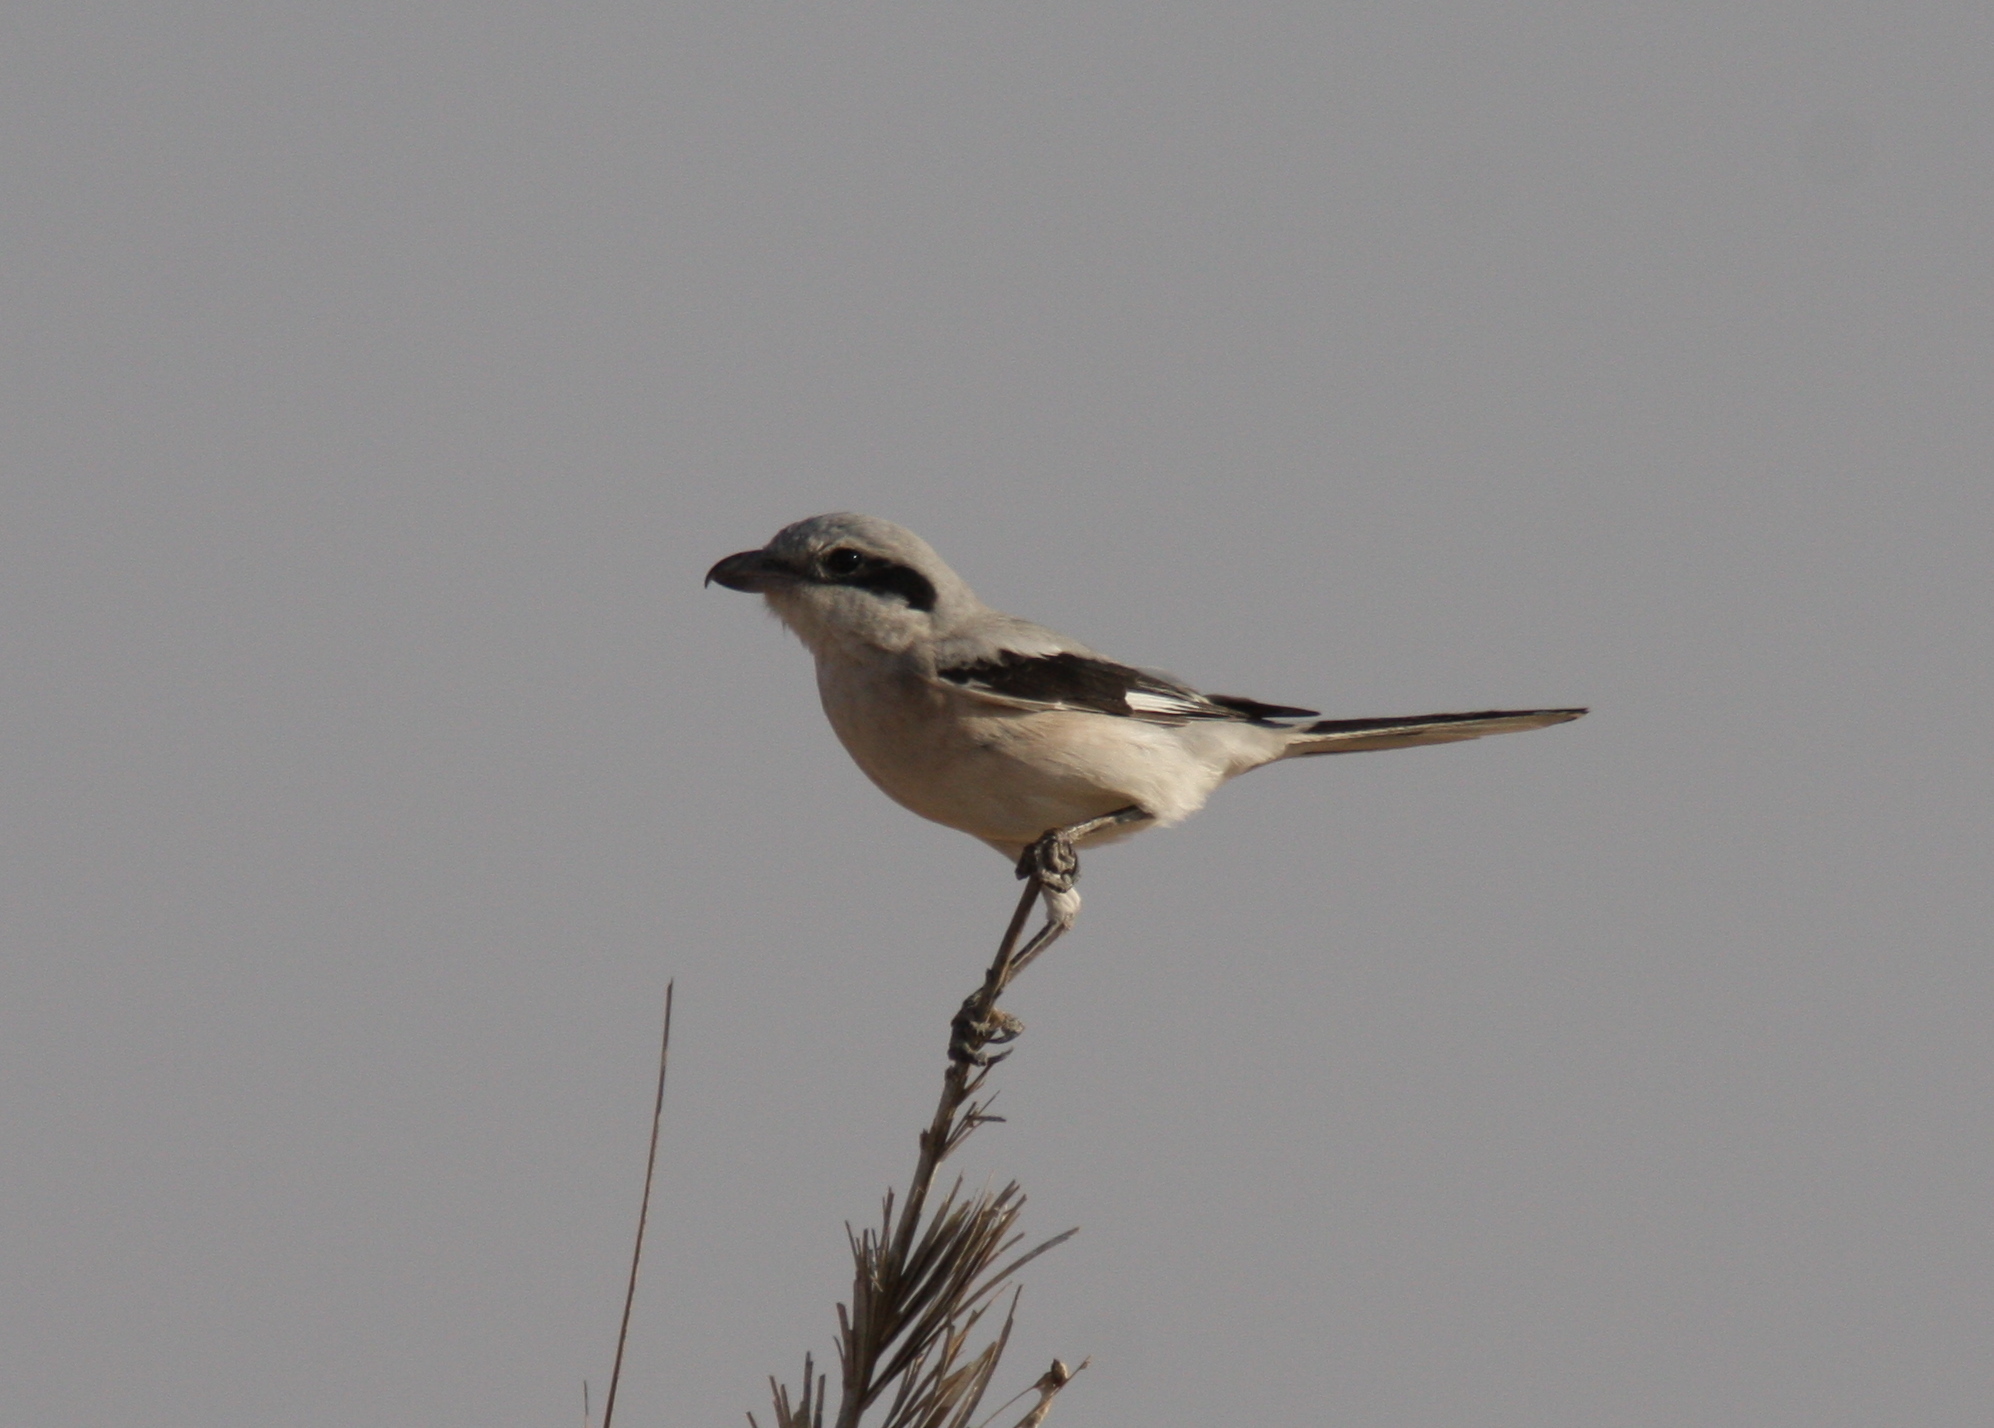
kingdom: Animalia
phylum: Chordata
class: Aves
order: Passeriformes
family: Laniidae
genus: Lanius
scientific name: Lanius excubitor
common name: Great grey shrike
